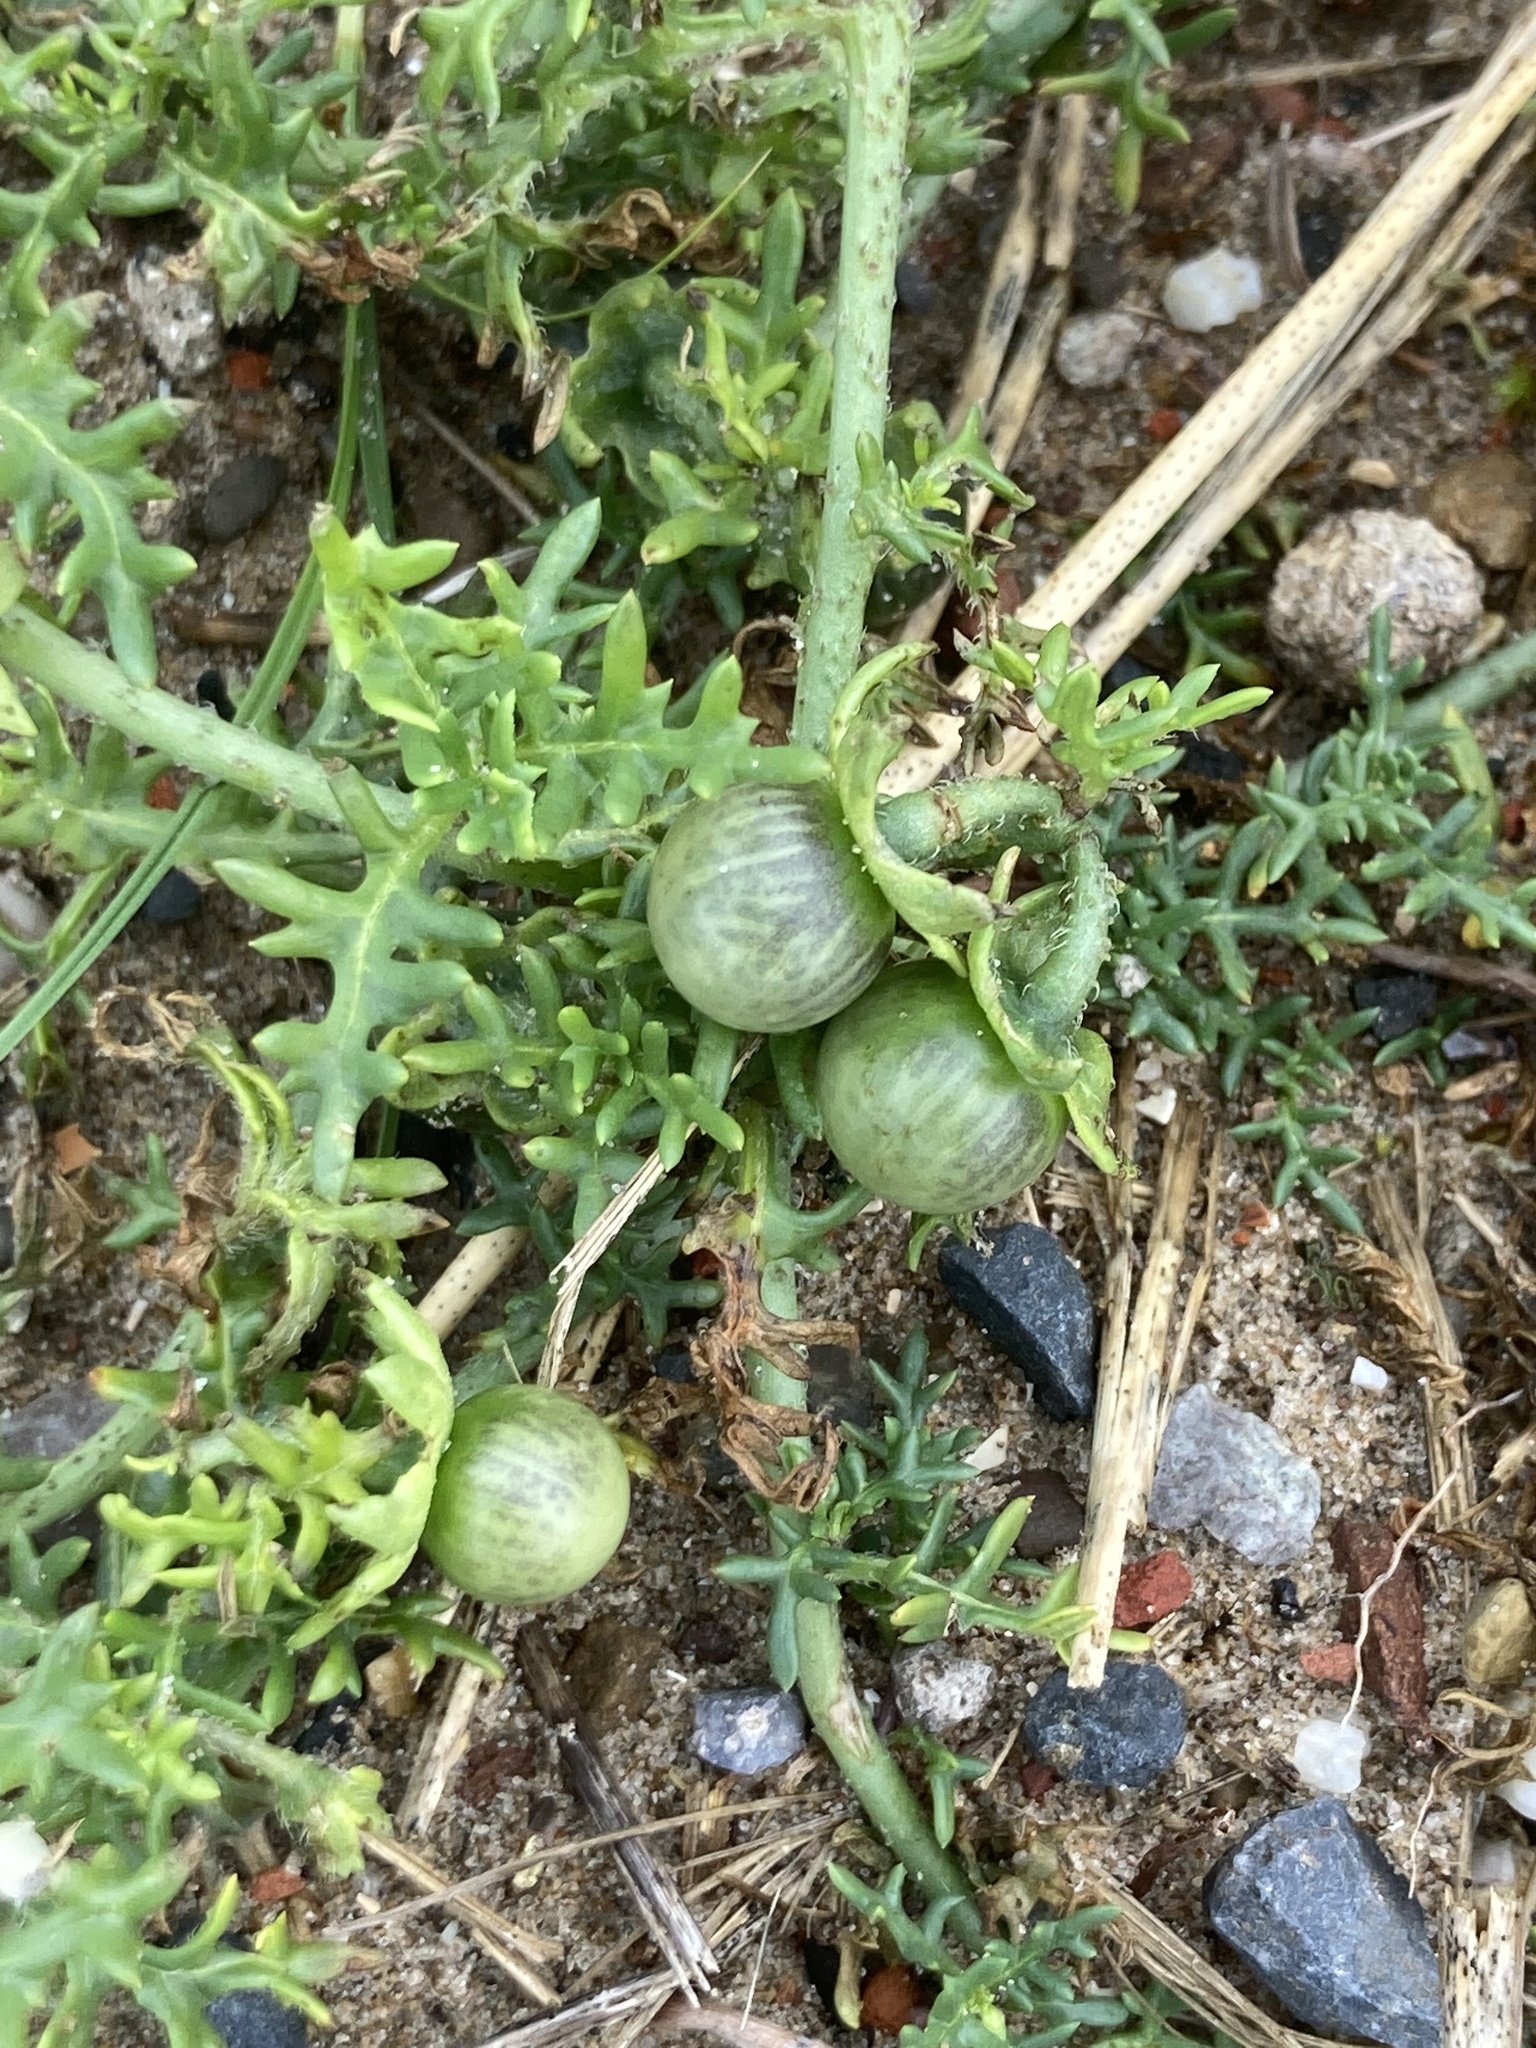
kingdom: Plantae
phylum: Tracheophyta
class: Magnoliopsida
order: Solanales
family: Solanaceae
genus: Solanum
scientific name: Solanum triflorum
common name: Small nightshade
